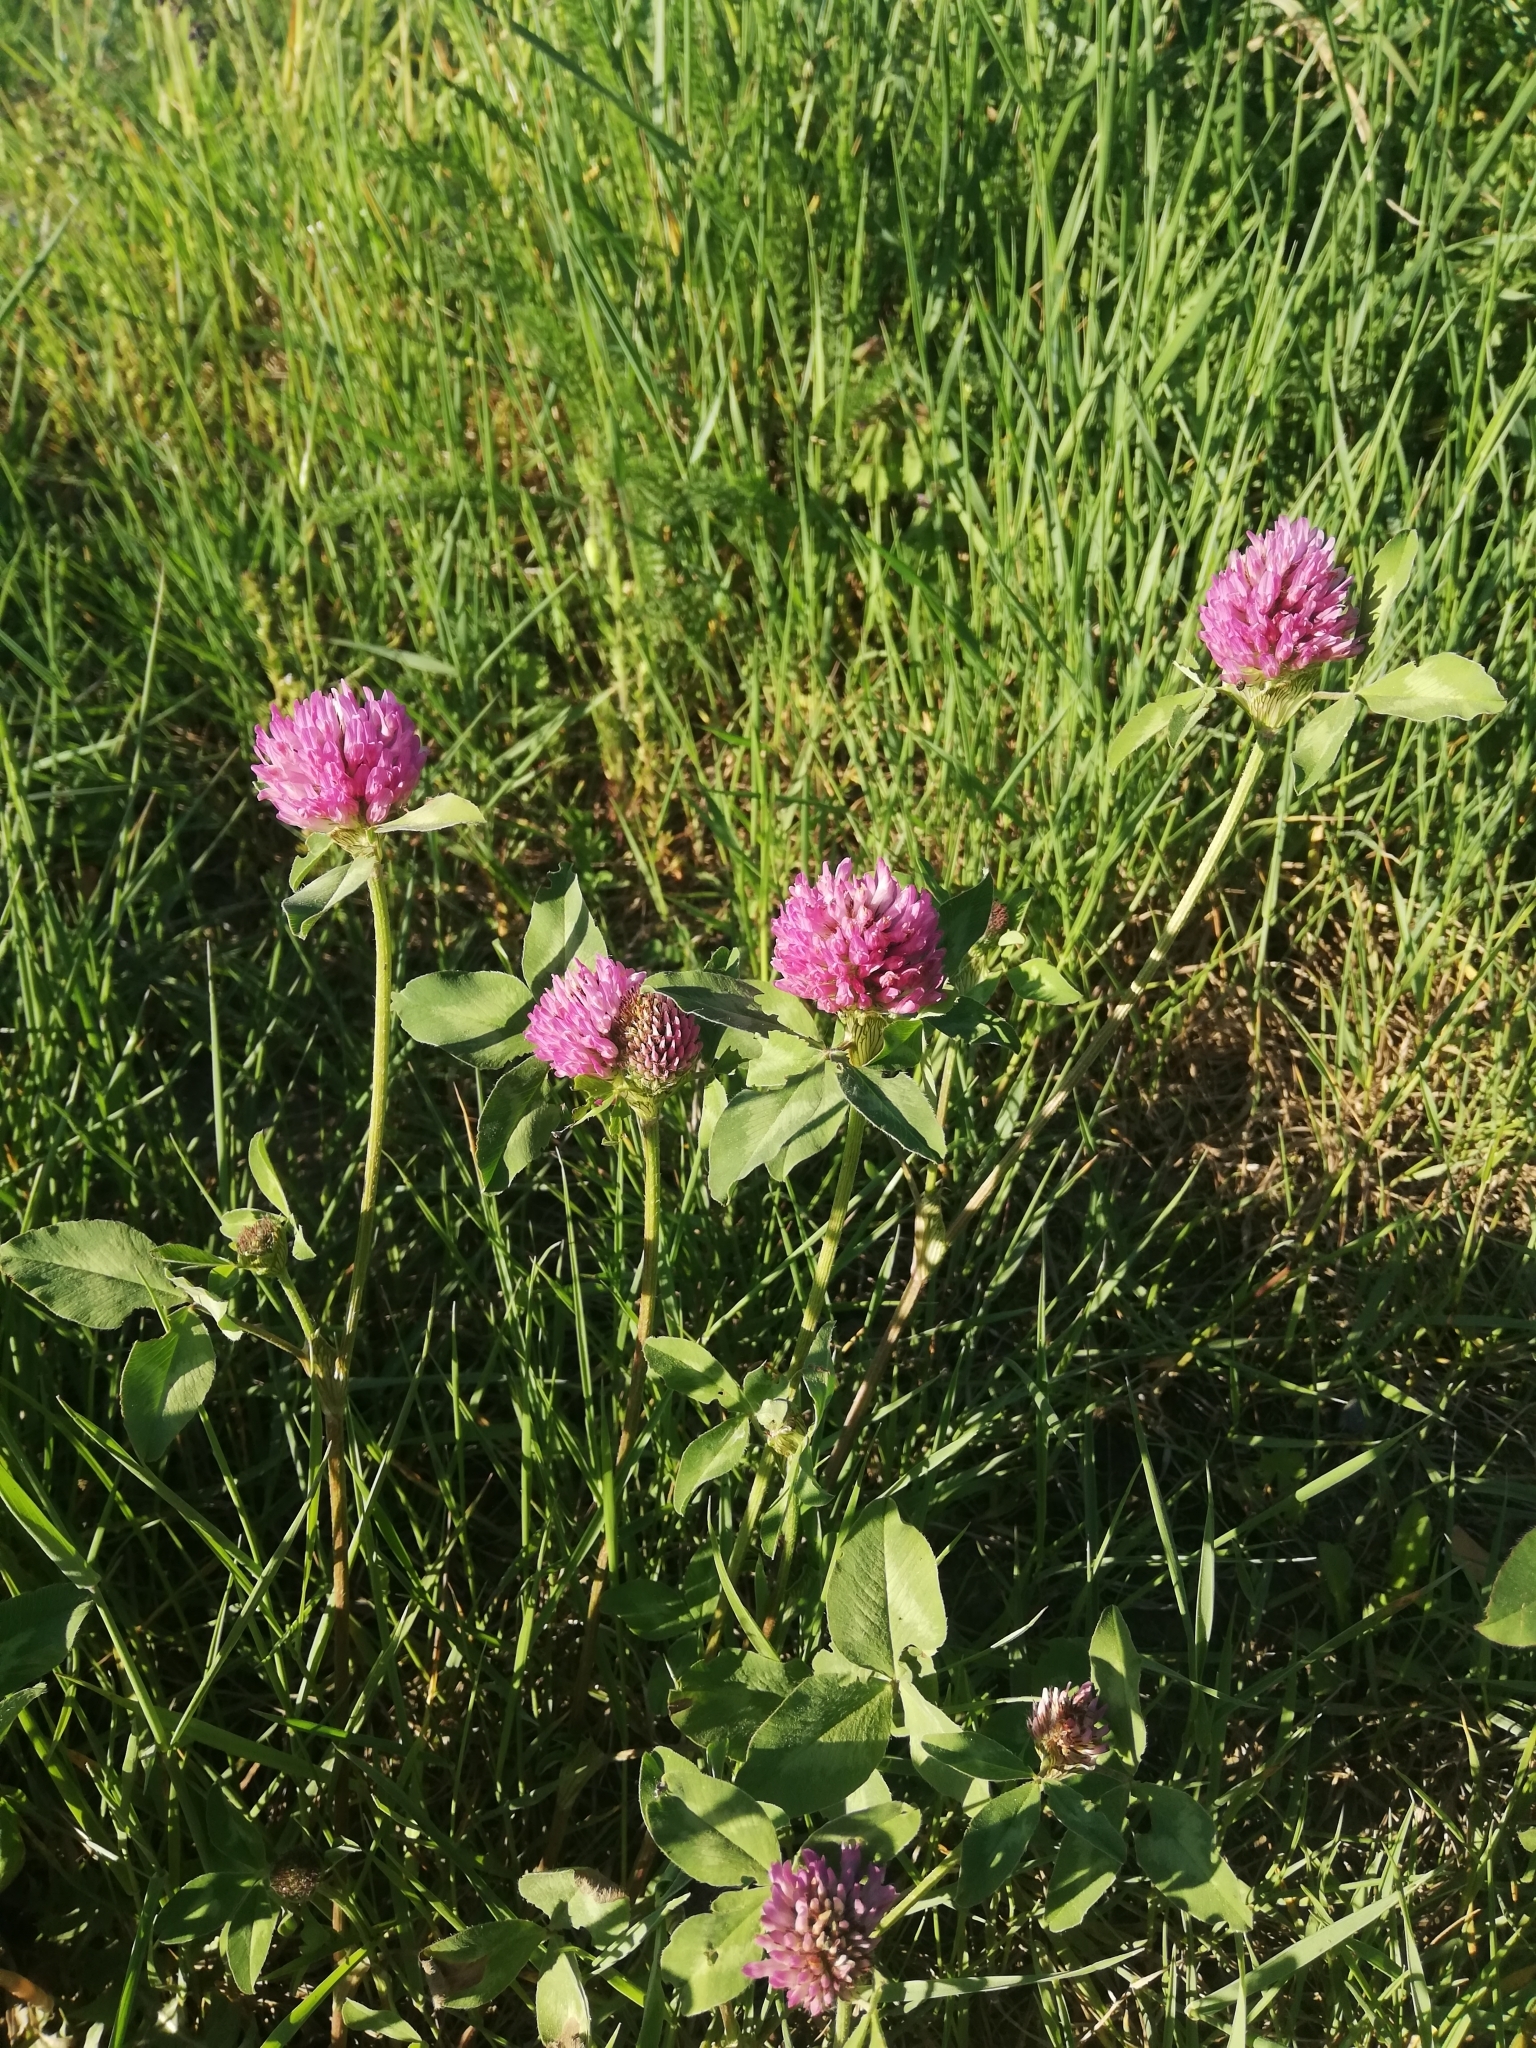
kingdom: Plantae
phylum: Tracheophyta
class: Magnoliopsida
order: Fabales
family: Fabaceae
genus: Trifolium
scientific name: Trifolium pratense
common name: Red clover
